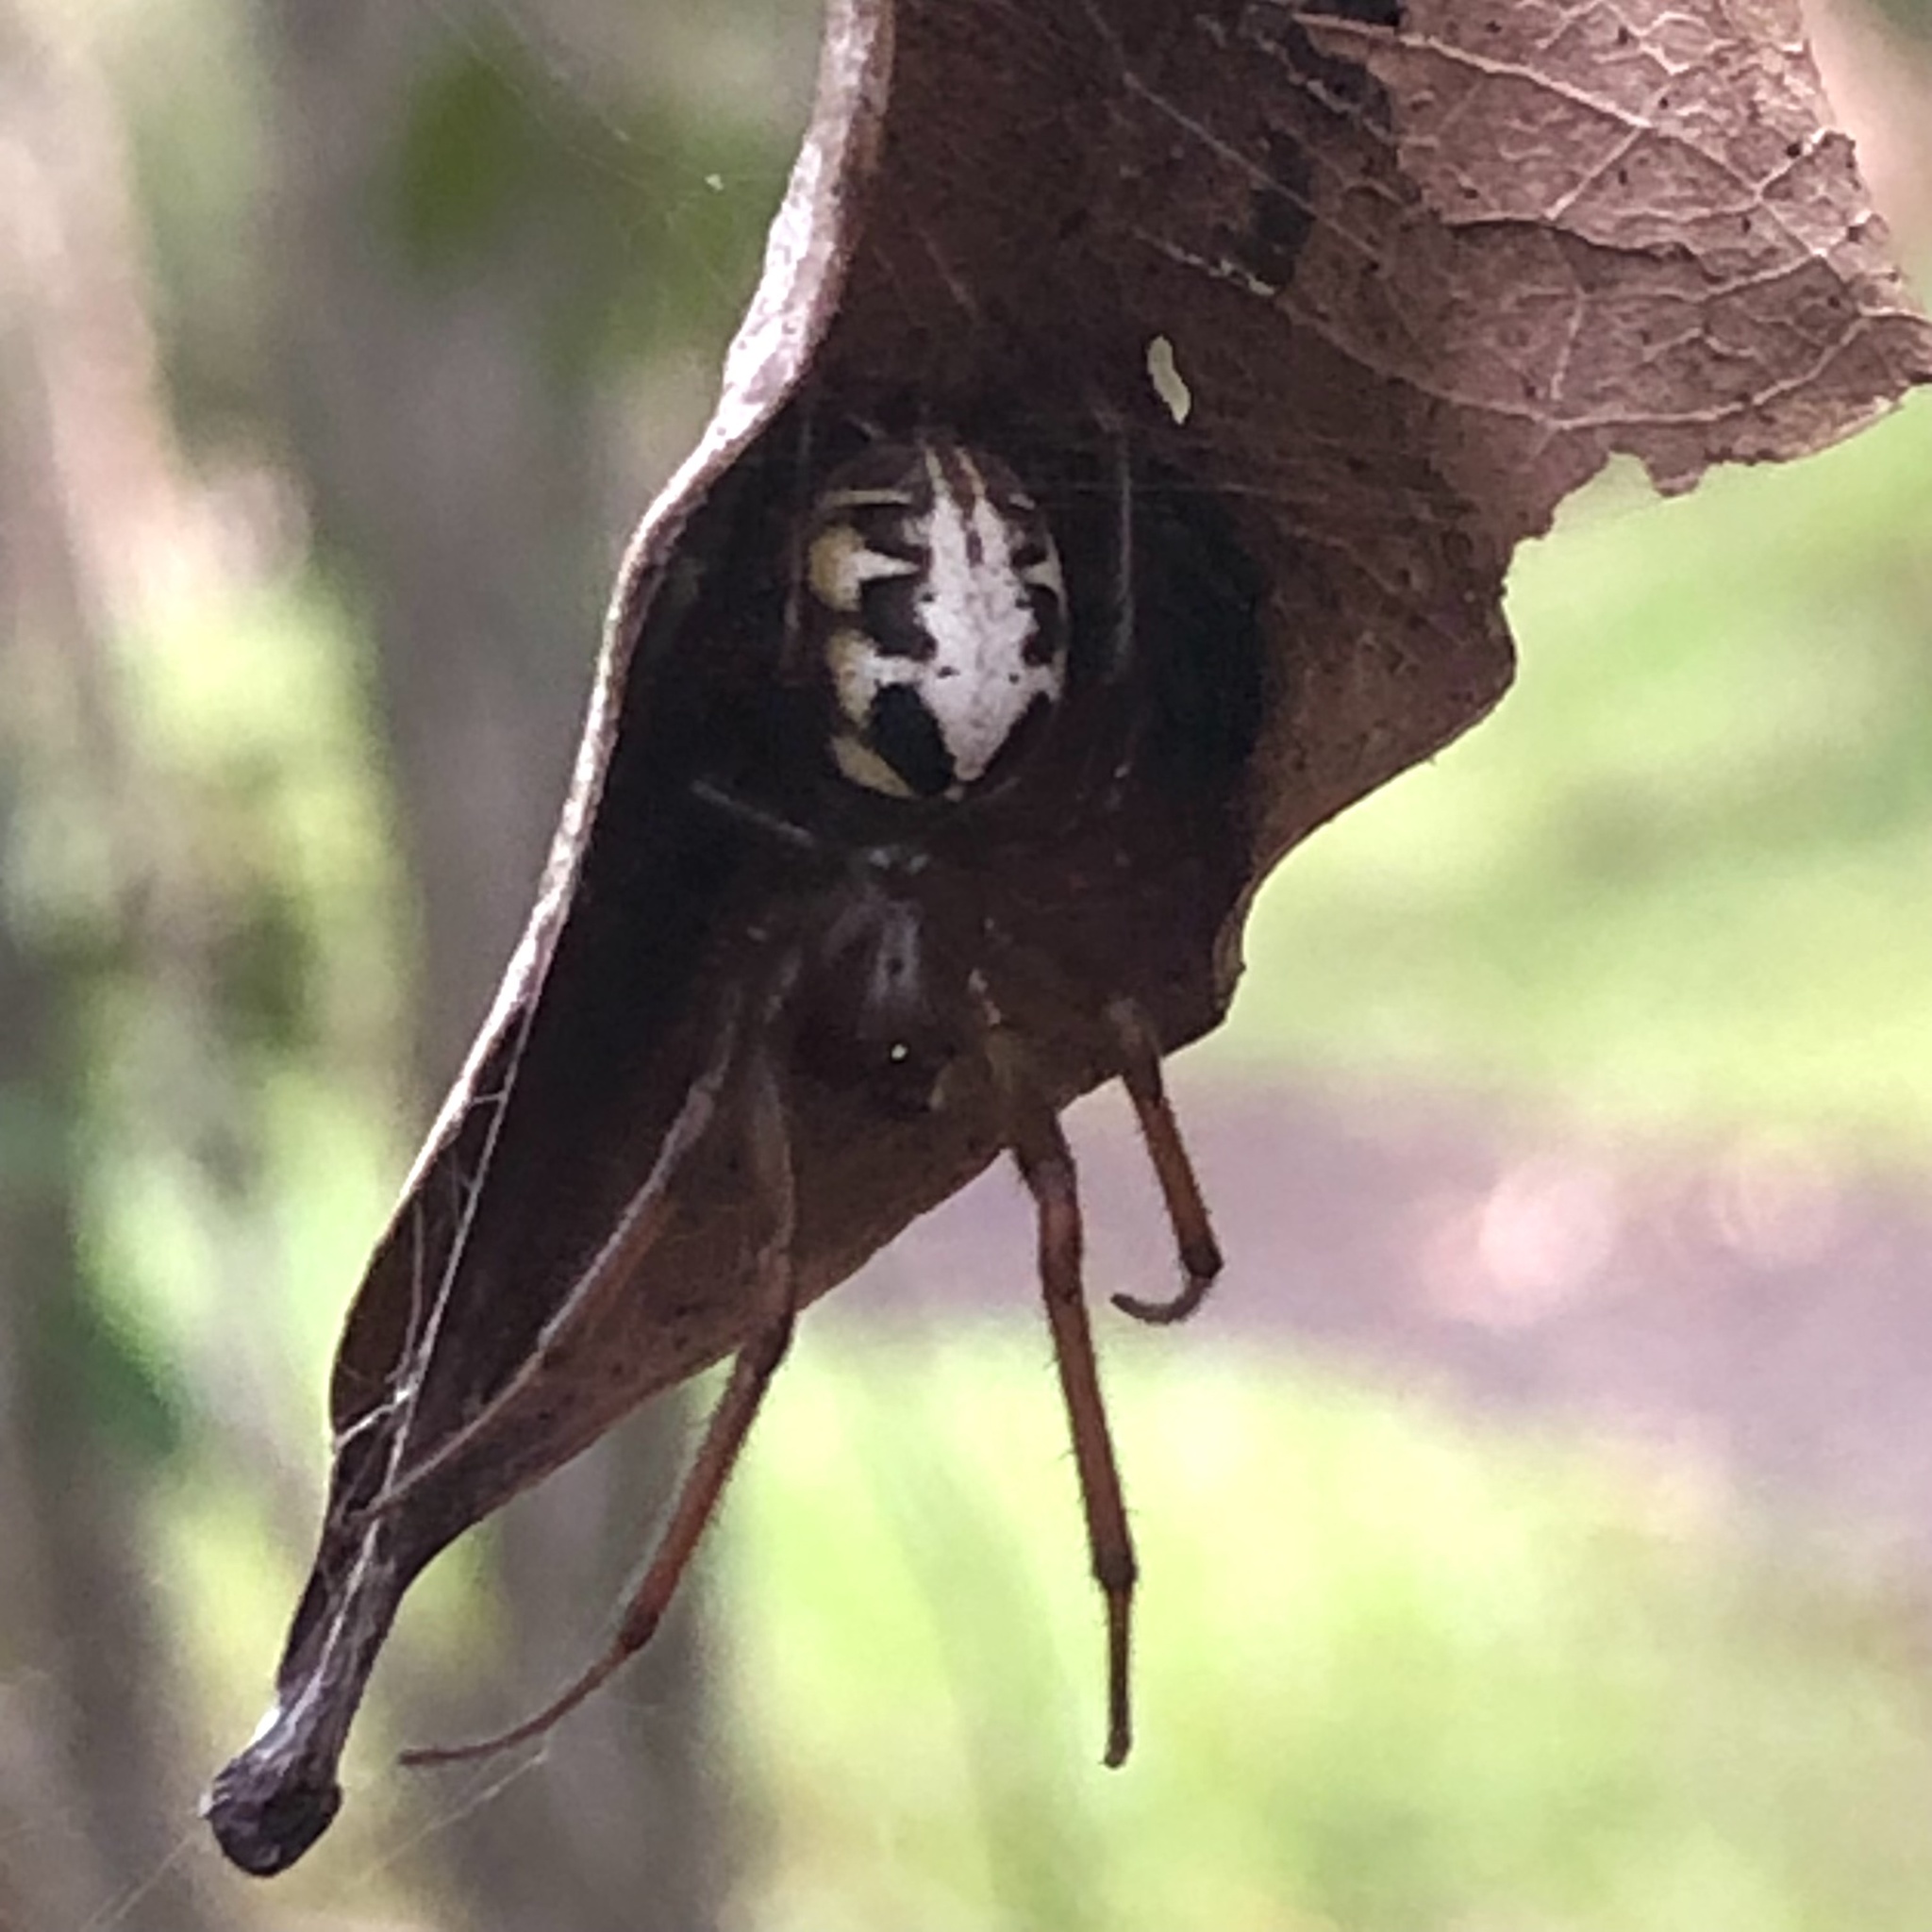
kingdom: Animalia
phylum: Arthropoda
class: Arachnida
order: Araneae
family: Araneidae
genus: Phonognatha
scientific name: Phonognatha tanyodon
